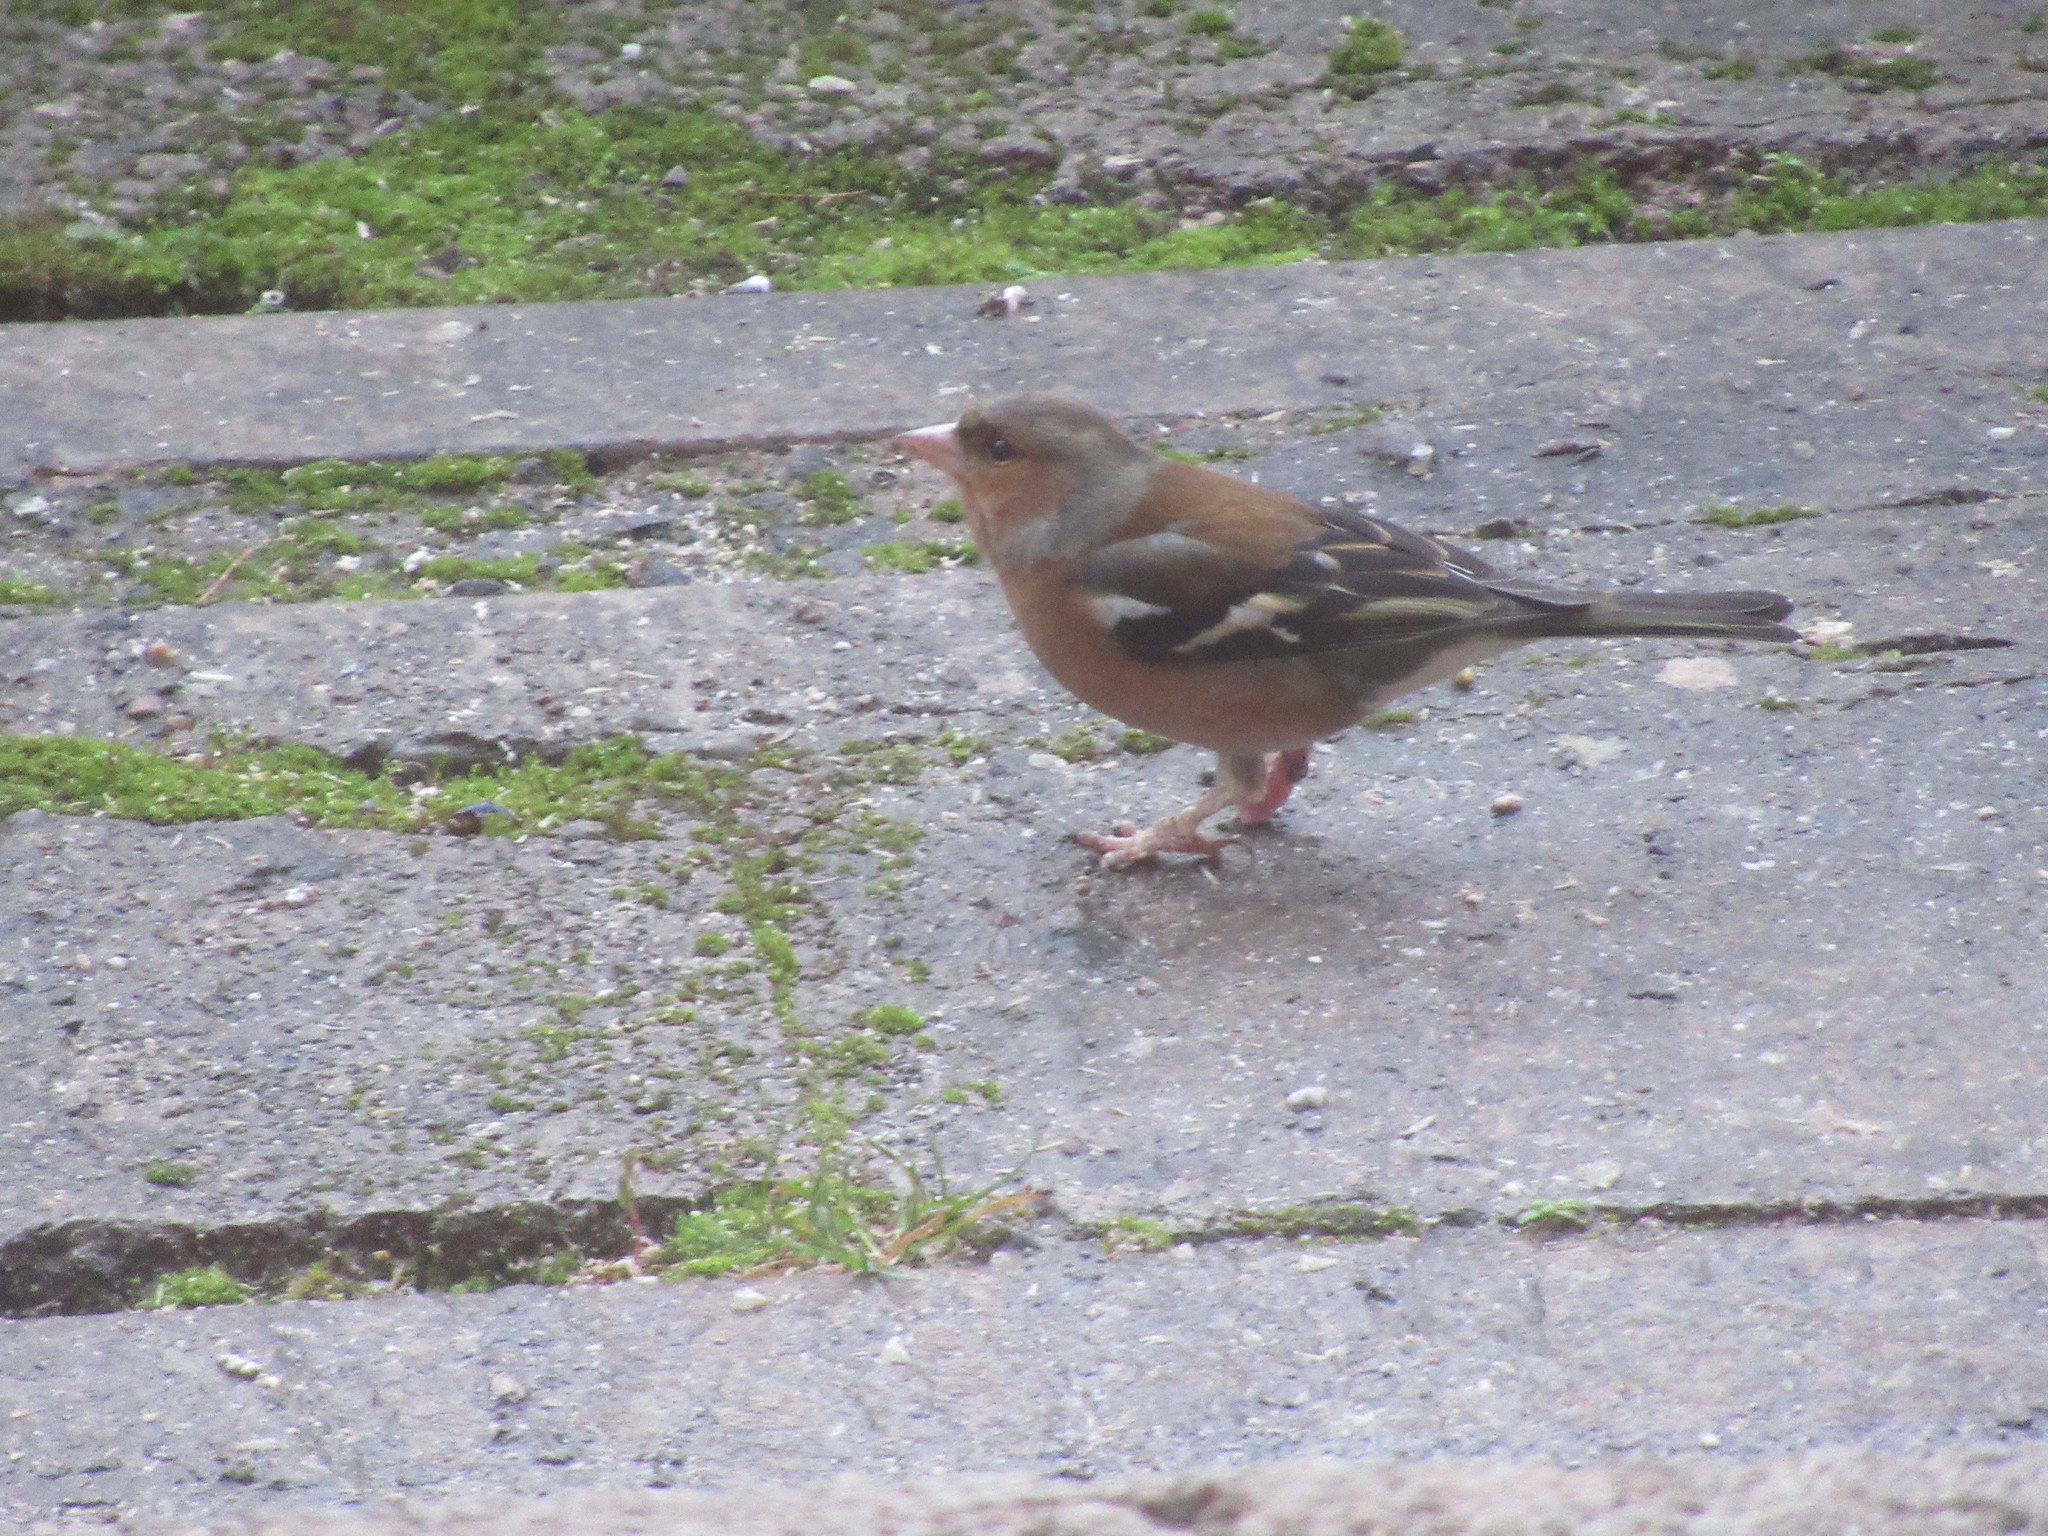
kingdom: Animalia
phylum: Chordata
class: Aves
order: Passeriformes
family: Fringillidae
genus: Fringilla
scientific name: Fringilla coelebs
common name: Common chaffinch
